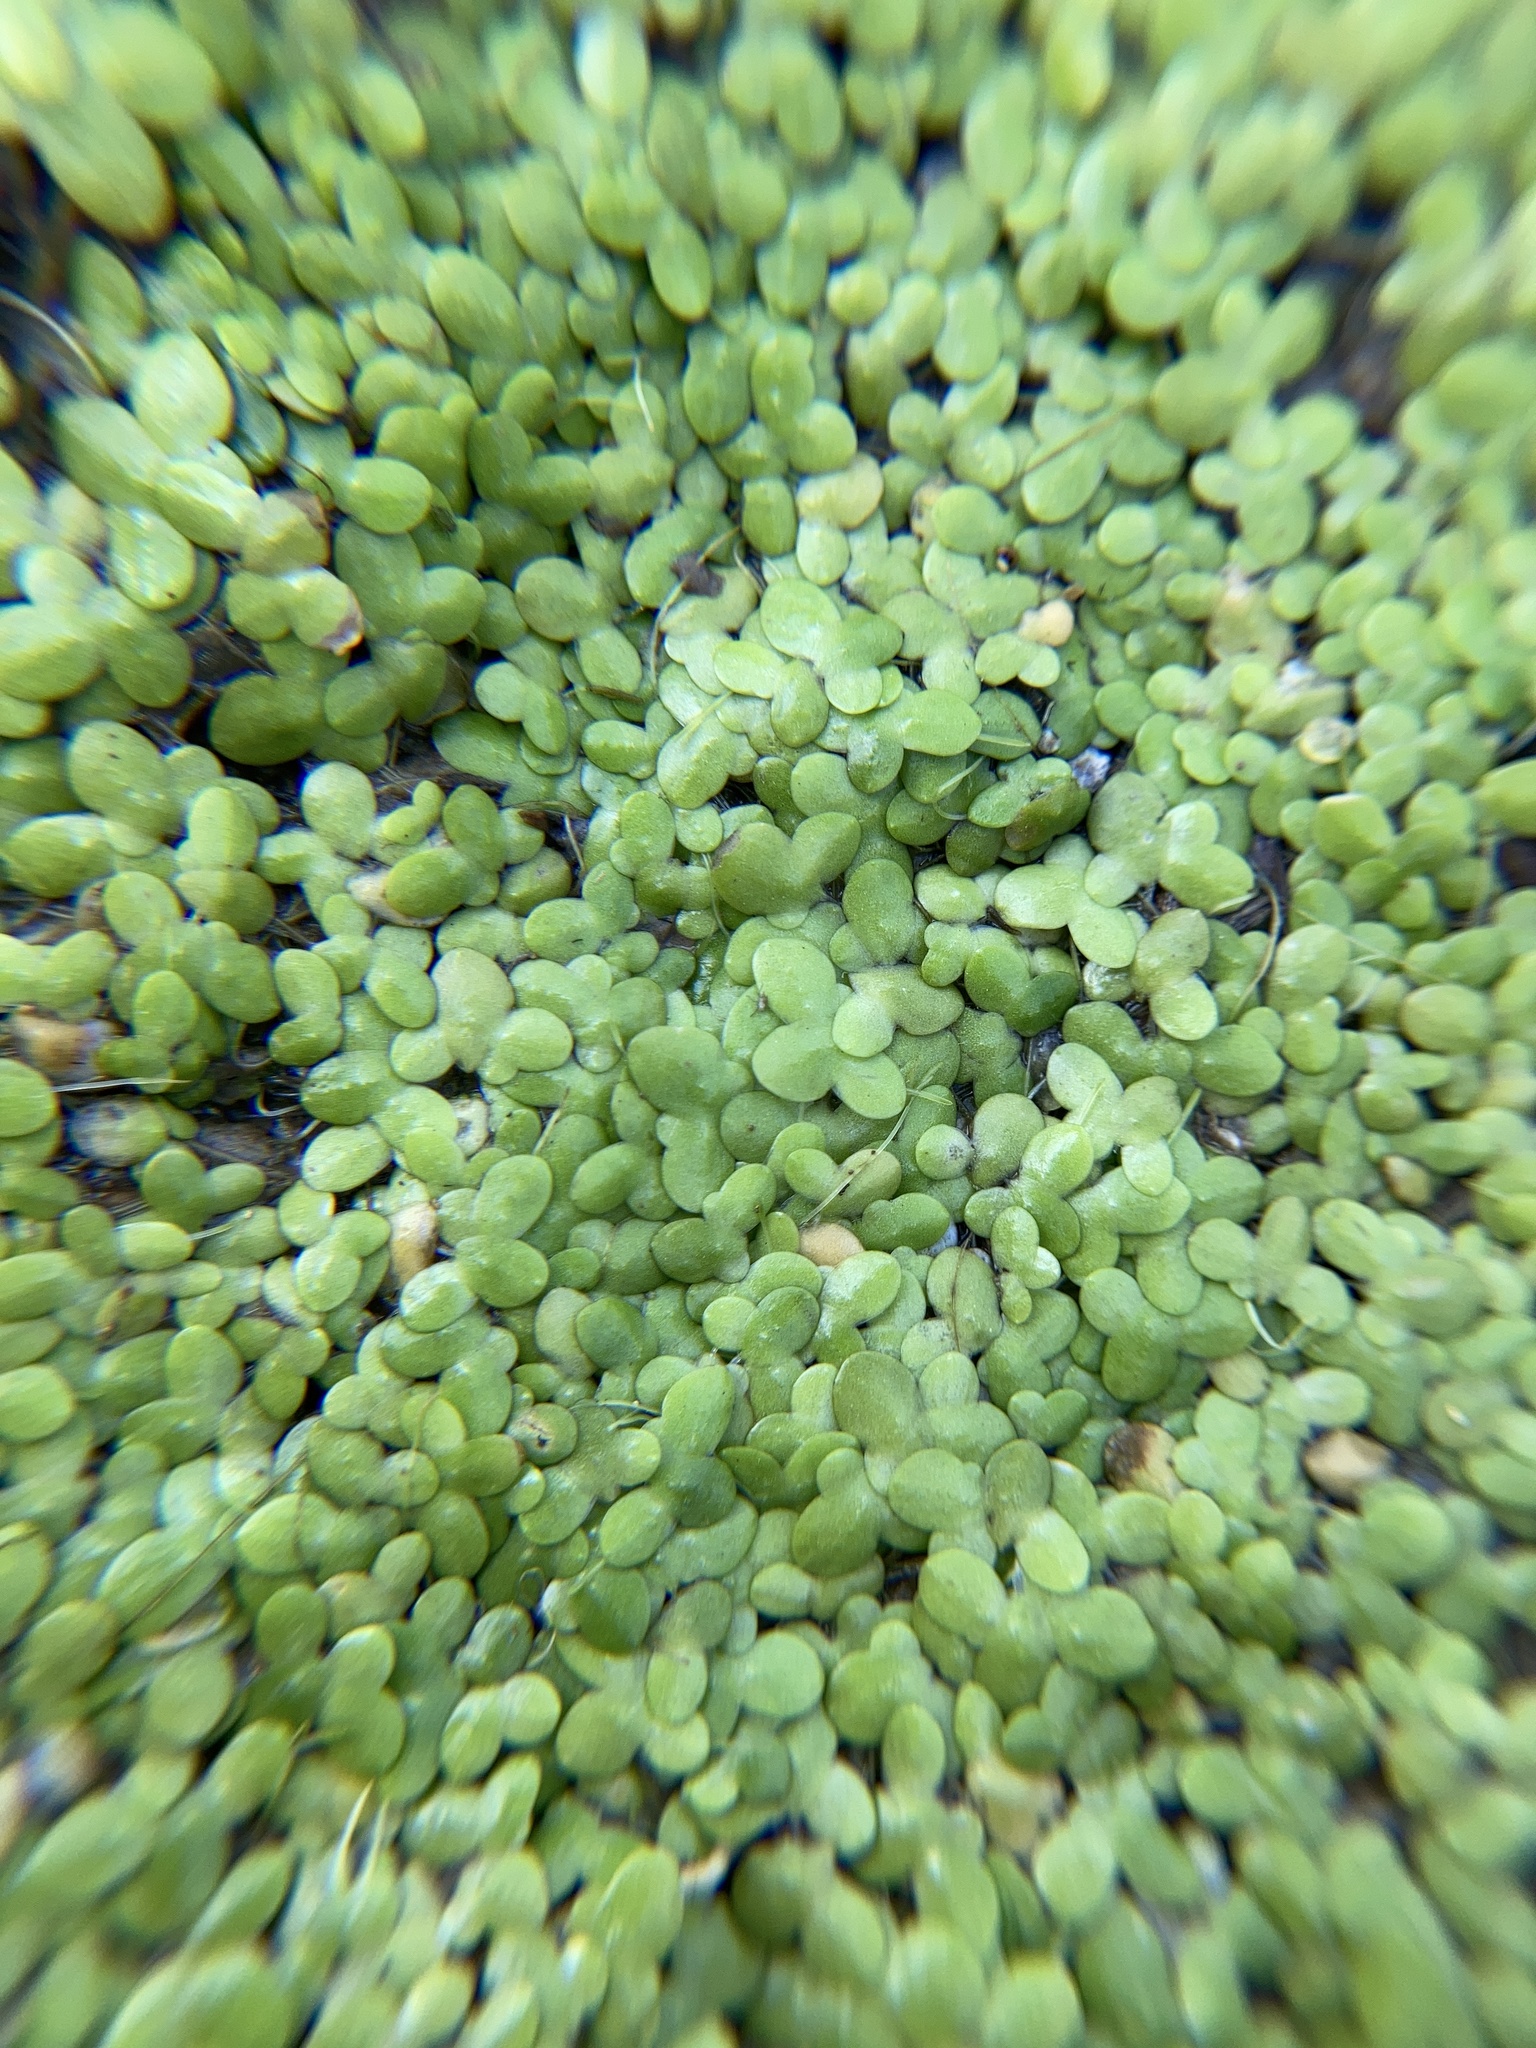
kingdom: Plantae
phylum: Tracheophyta
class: Liliopsida
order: Alismatales
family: Araceae
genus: Lemna
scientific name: Lemna minor
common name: Common duckweed
